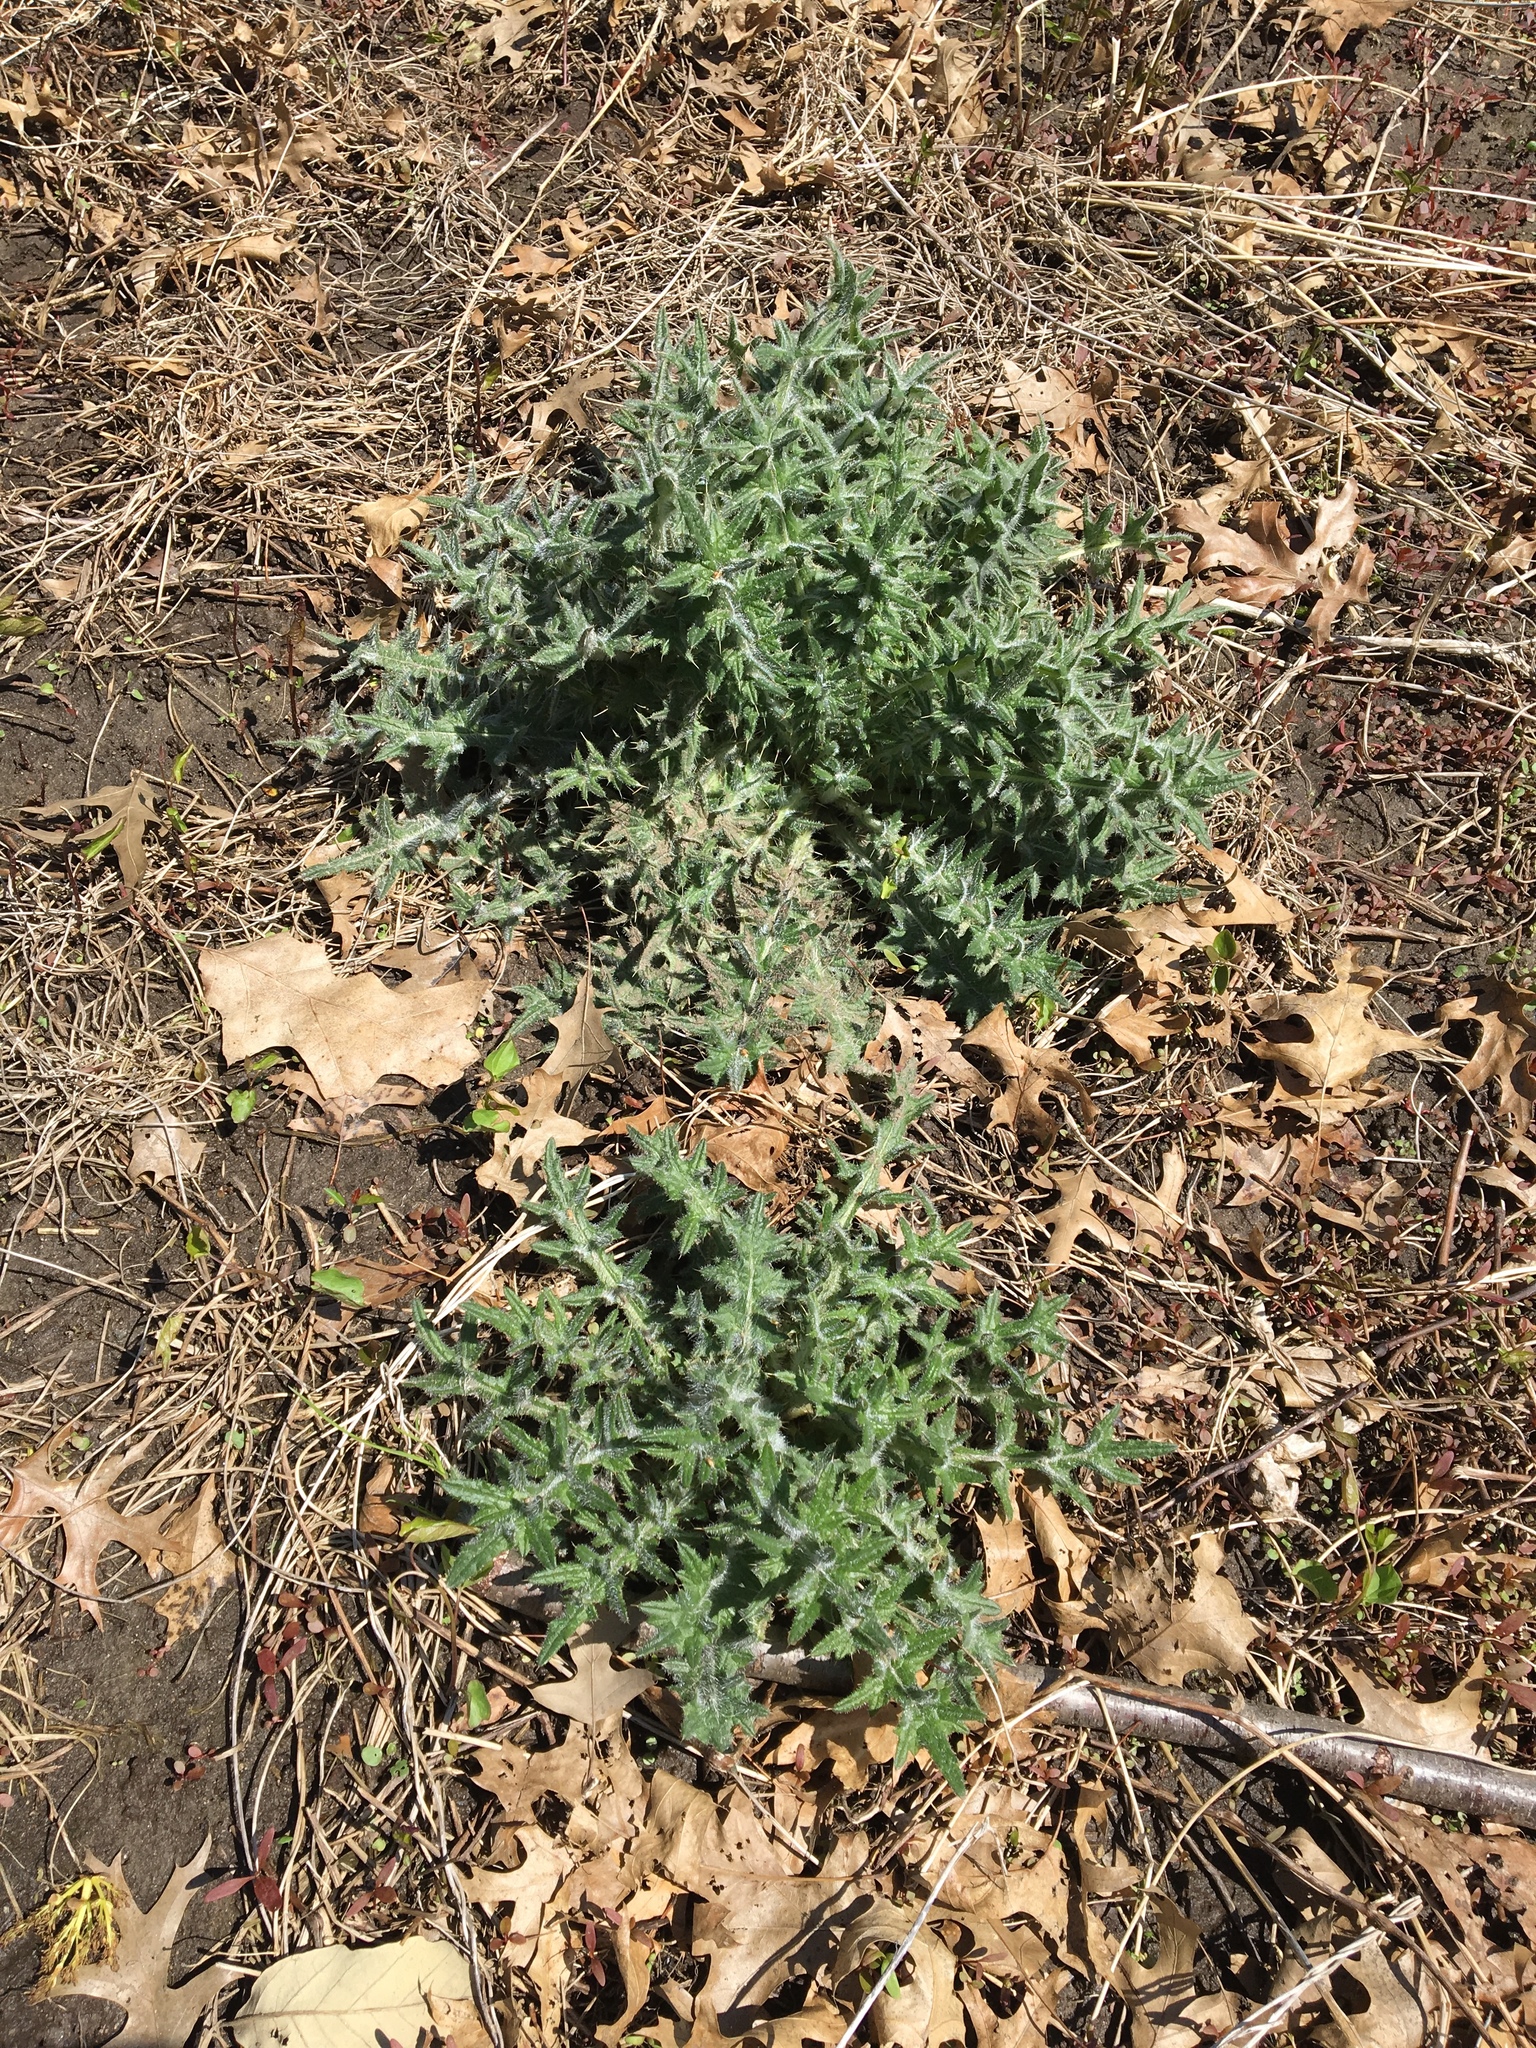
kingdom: Plantae
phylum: Tracheophyta
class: Magnoliopsida
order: Asterales
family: Asteraceae
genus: Cirsium
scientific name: Cirsium vulgare
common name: Bull thistle
